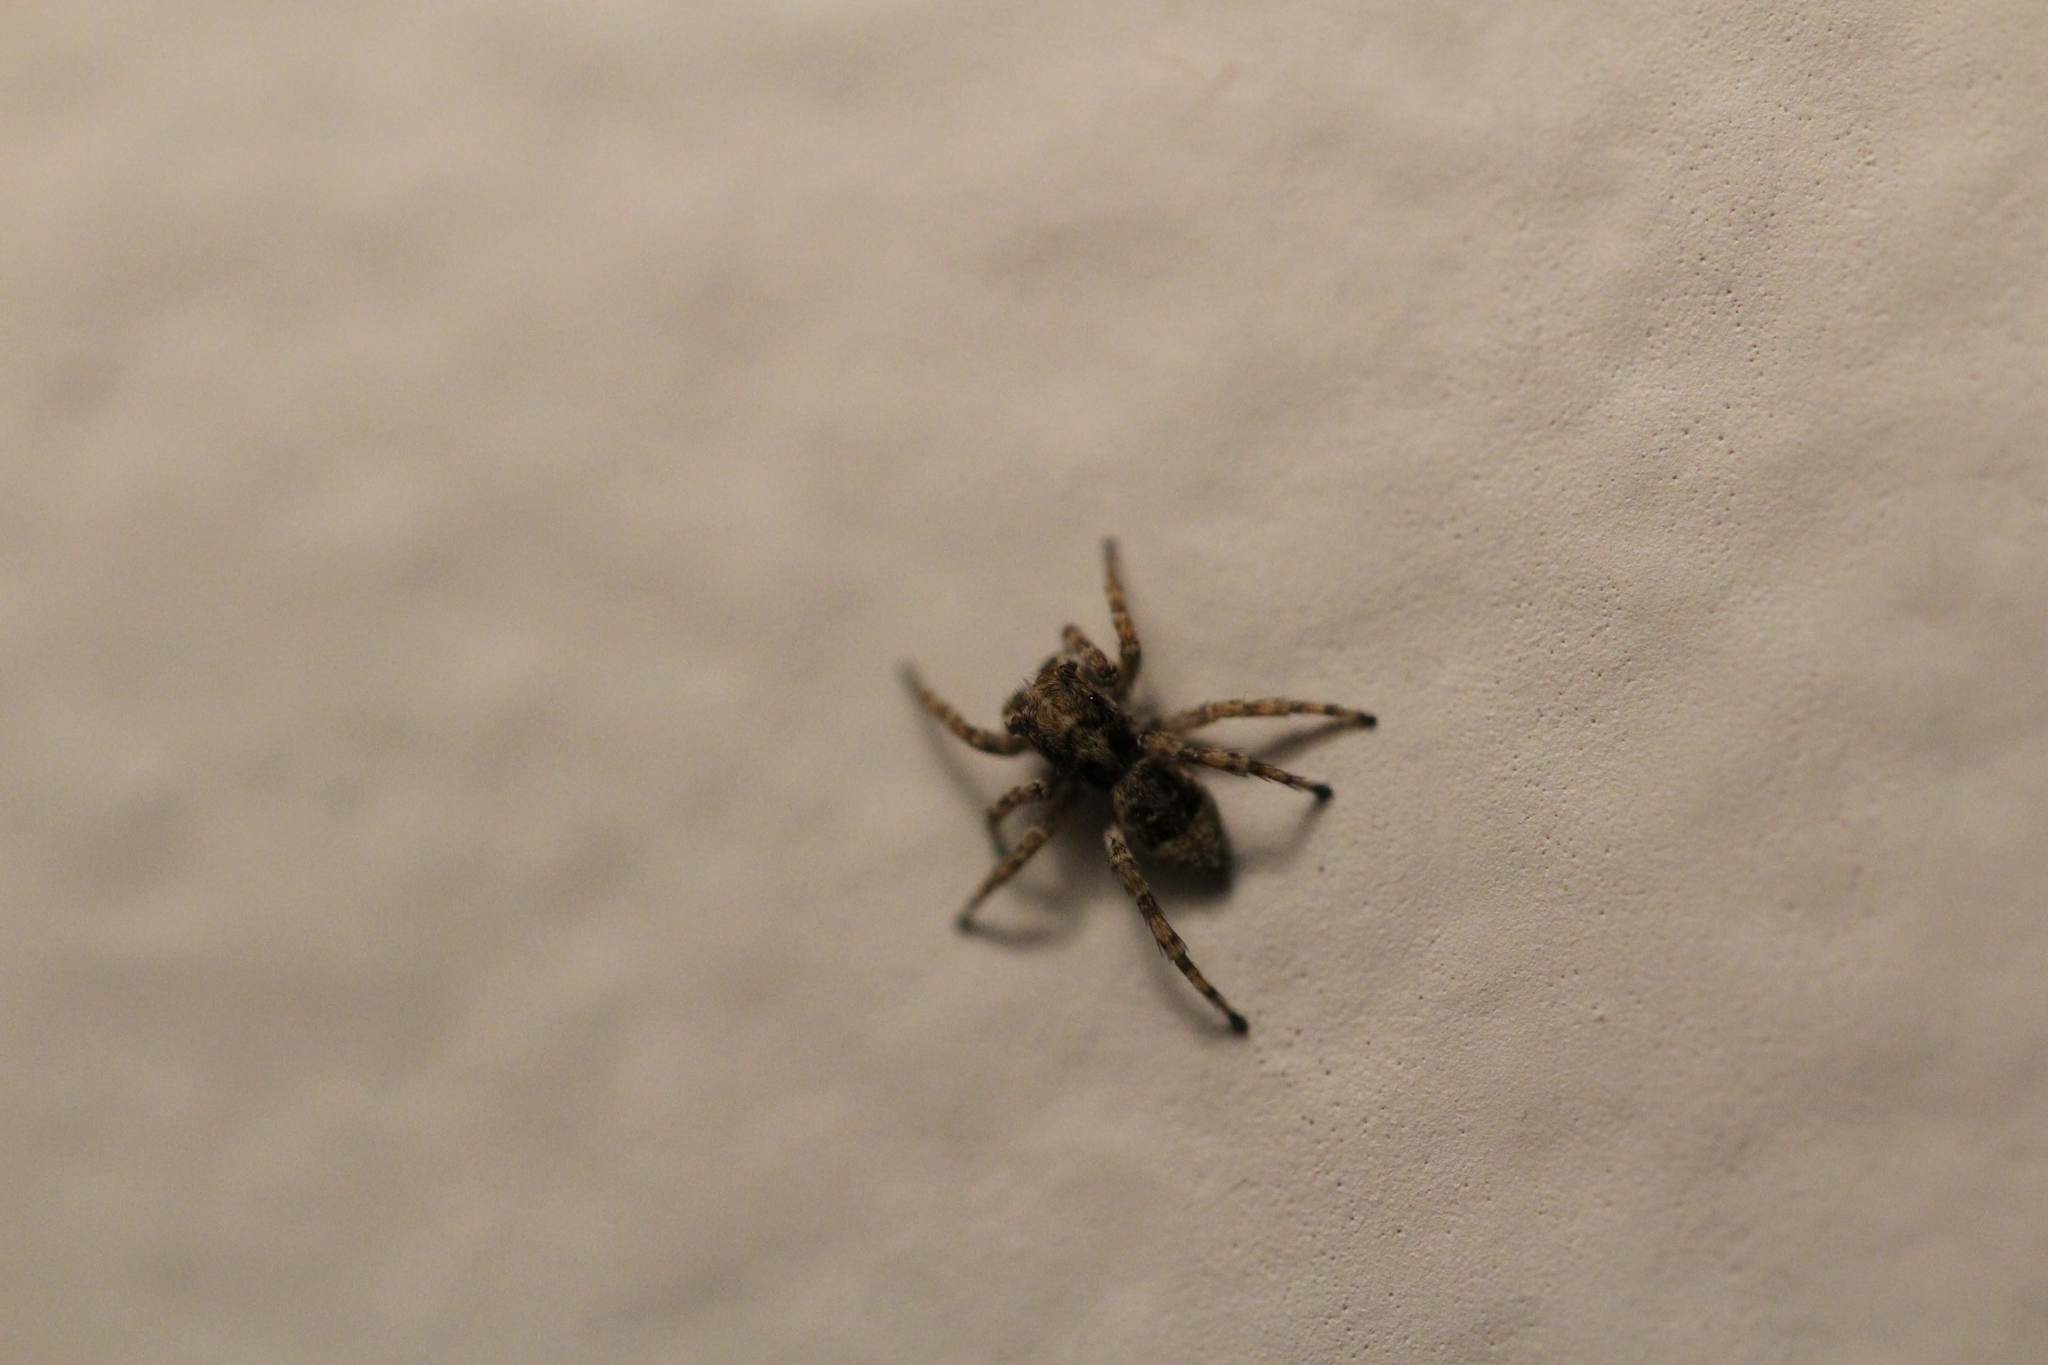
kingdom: Animalia
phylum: Arthropoda
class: Arachnida
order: Araneae
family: Salticidae
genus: Attulus
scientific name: Attulus fasciger
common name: Asiatic wall jumping spider
